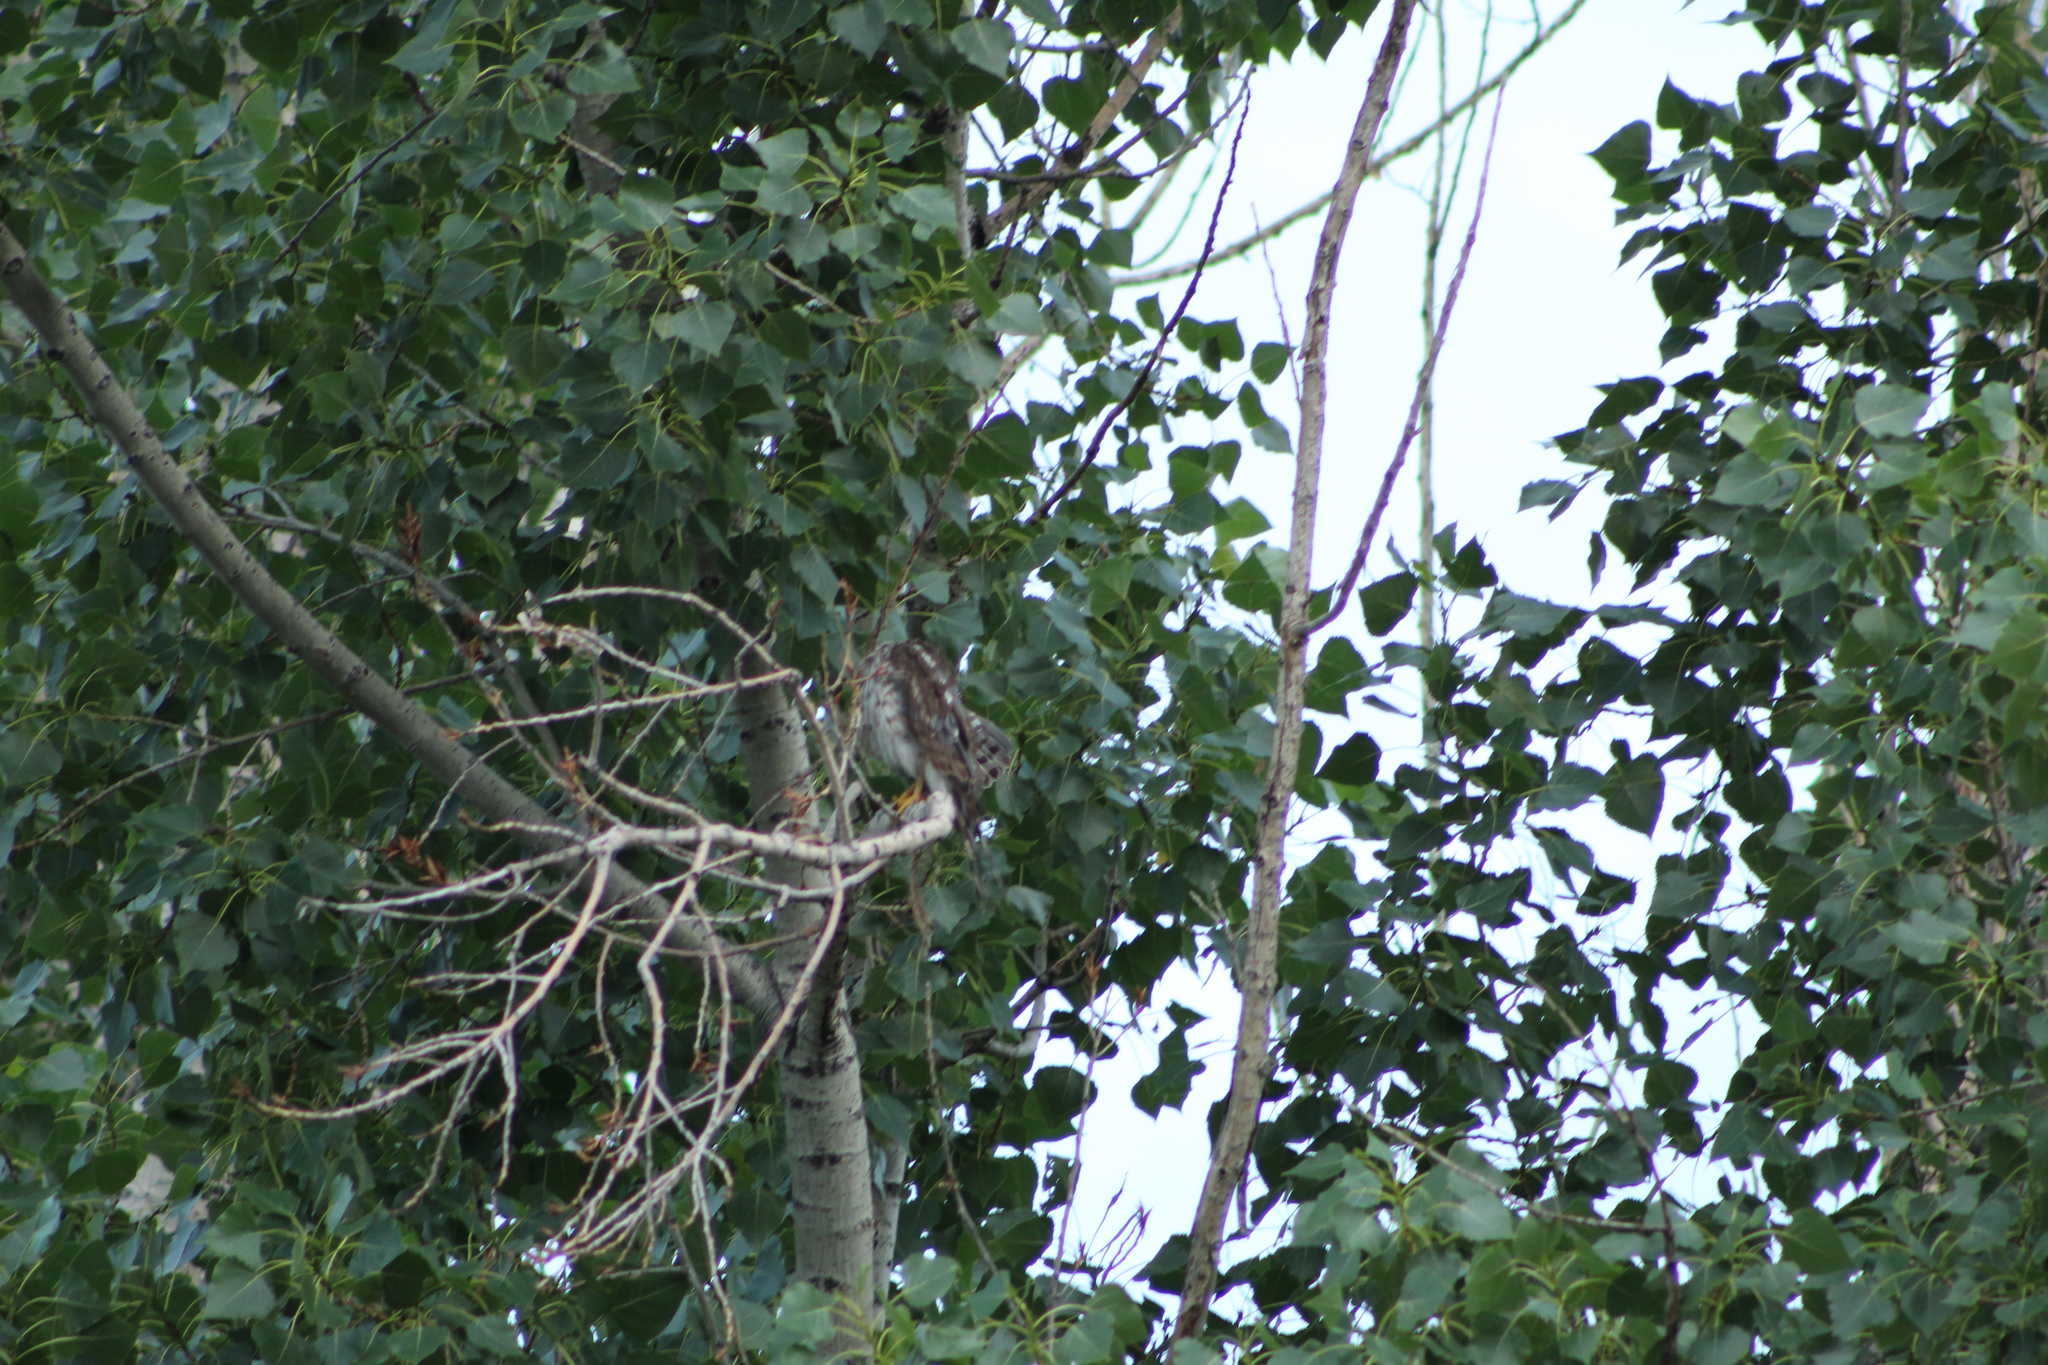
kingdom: Animalia
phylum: Chordata
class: Aves
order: Accipitriformes
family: Accipitridae
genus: Accipiter
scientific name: Accipiter cooperii
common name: Cooper's hawk
